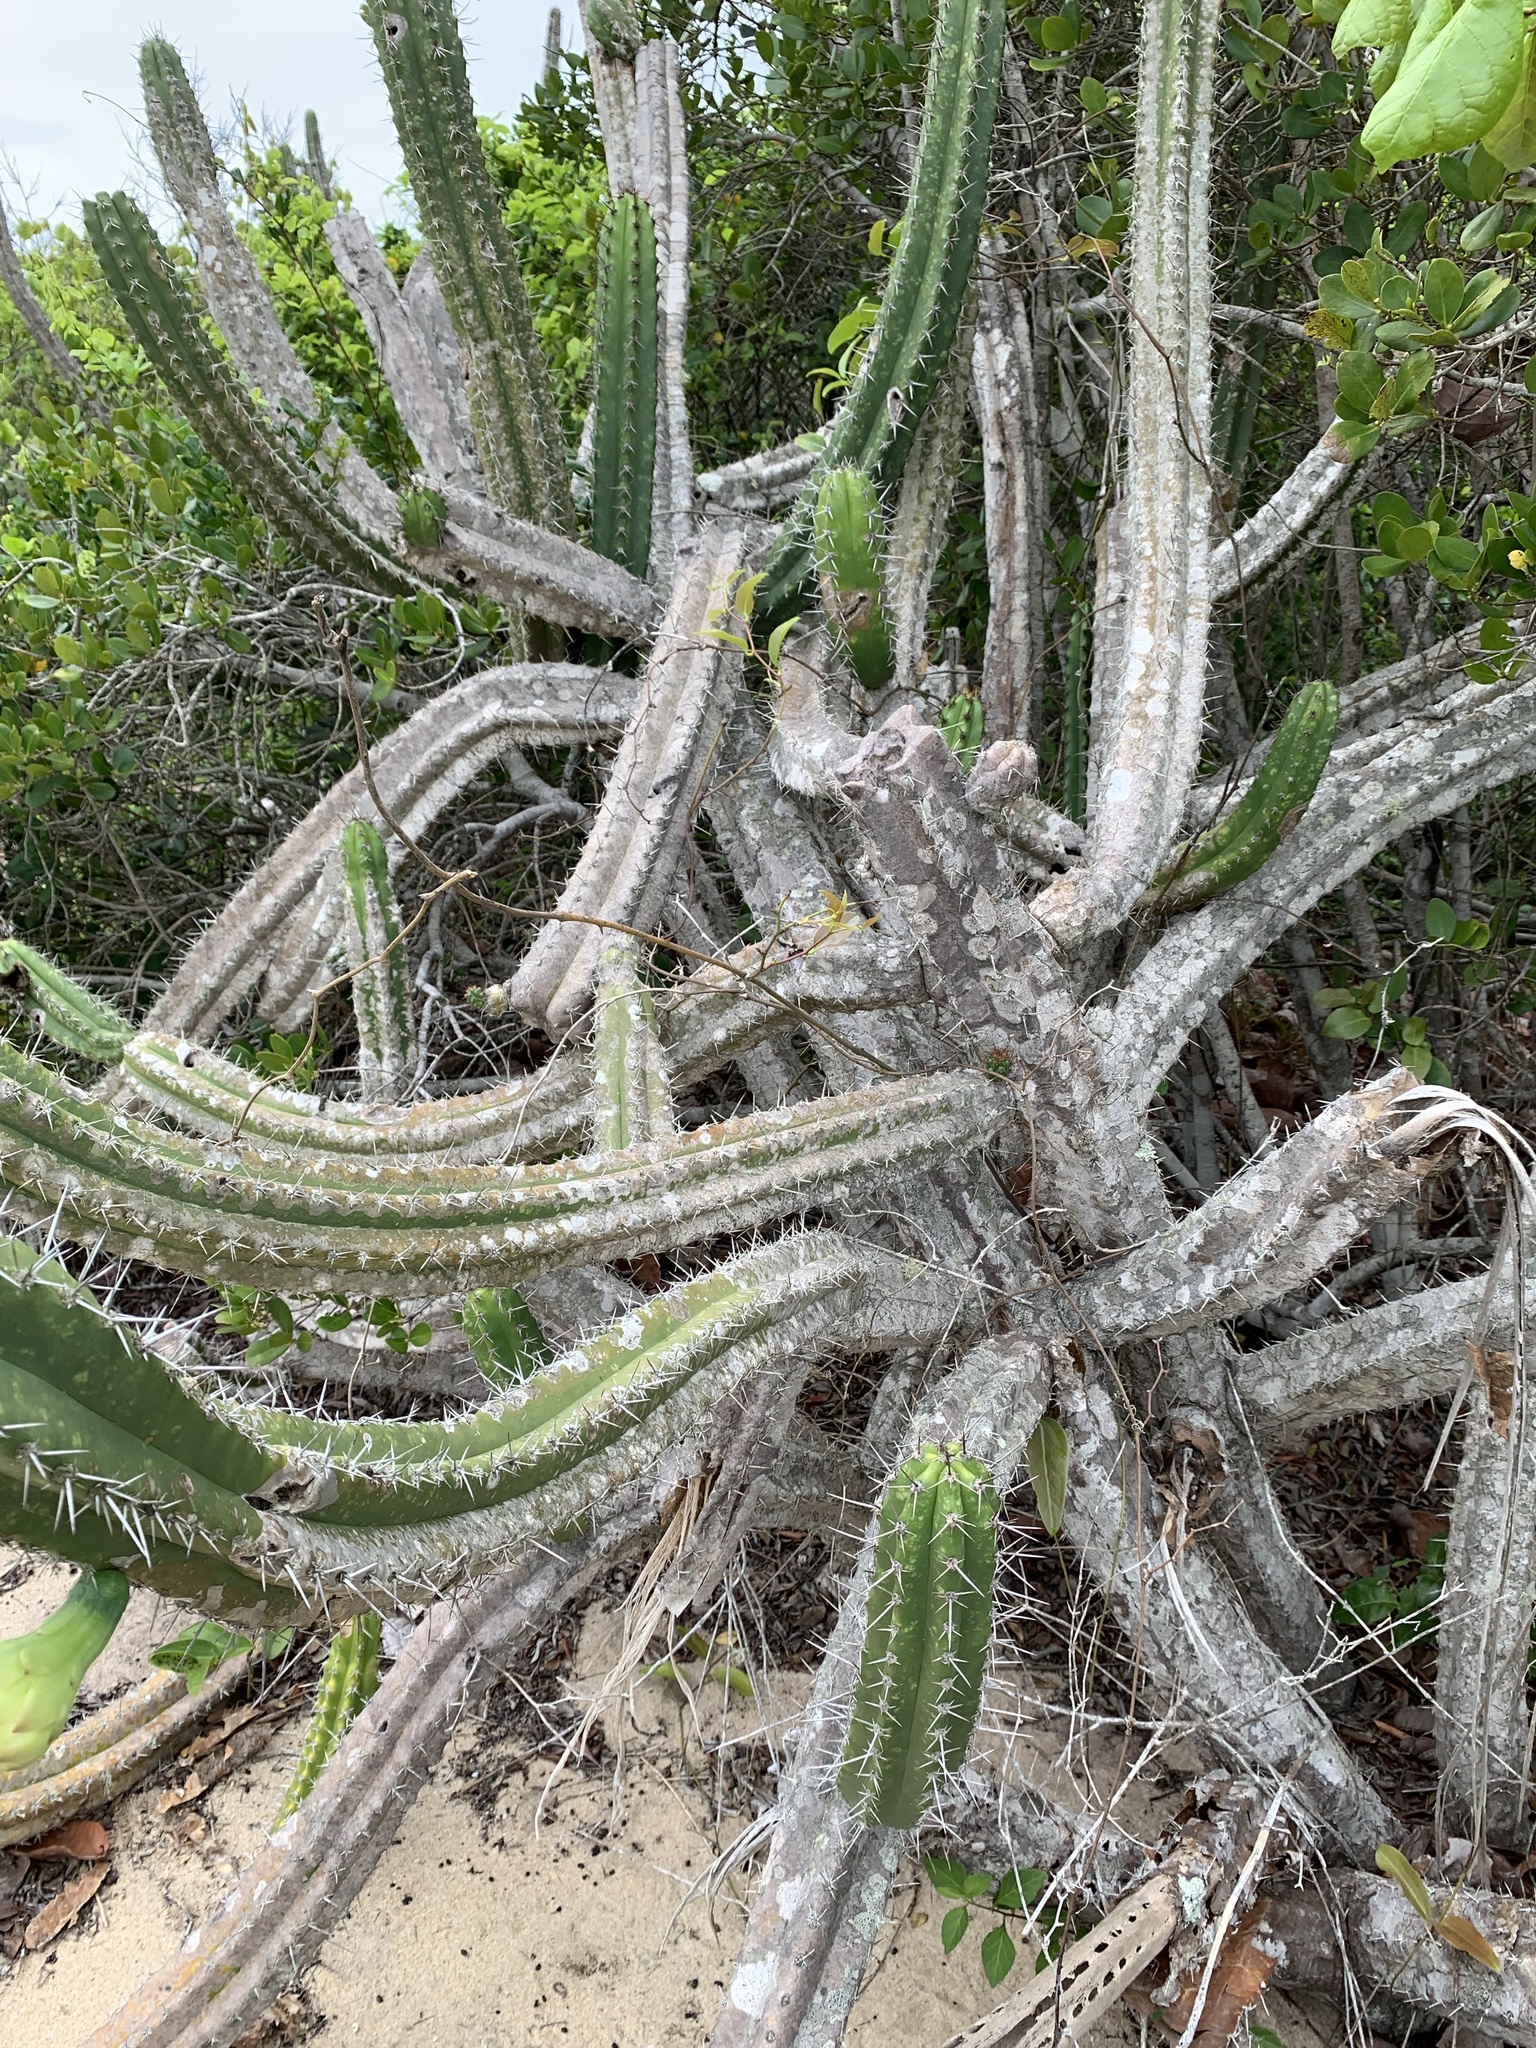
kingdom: Plantae
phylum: Tracheophyta
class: Magnoliopsida
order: Caryophyllales
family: Cactaceae
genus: Pilosocereus
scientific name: Pilosocereus arrabidae
